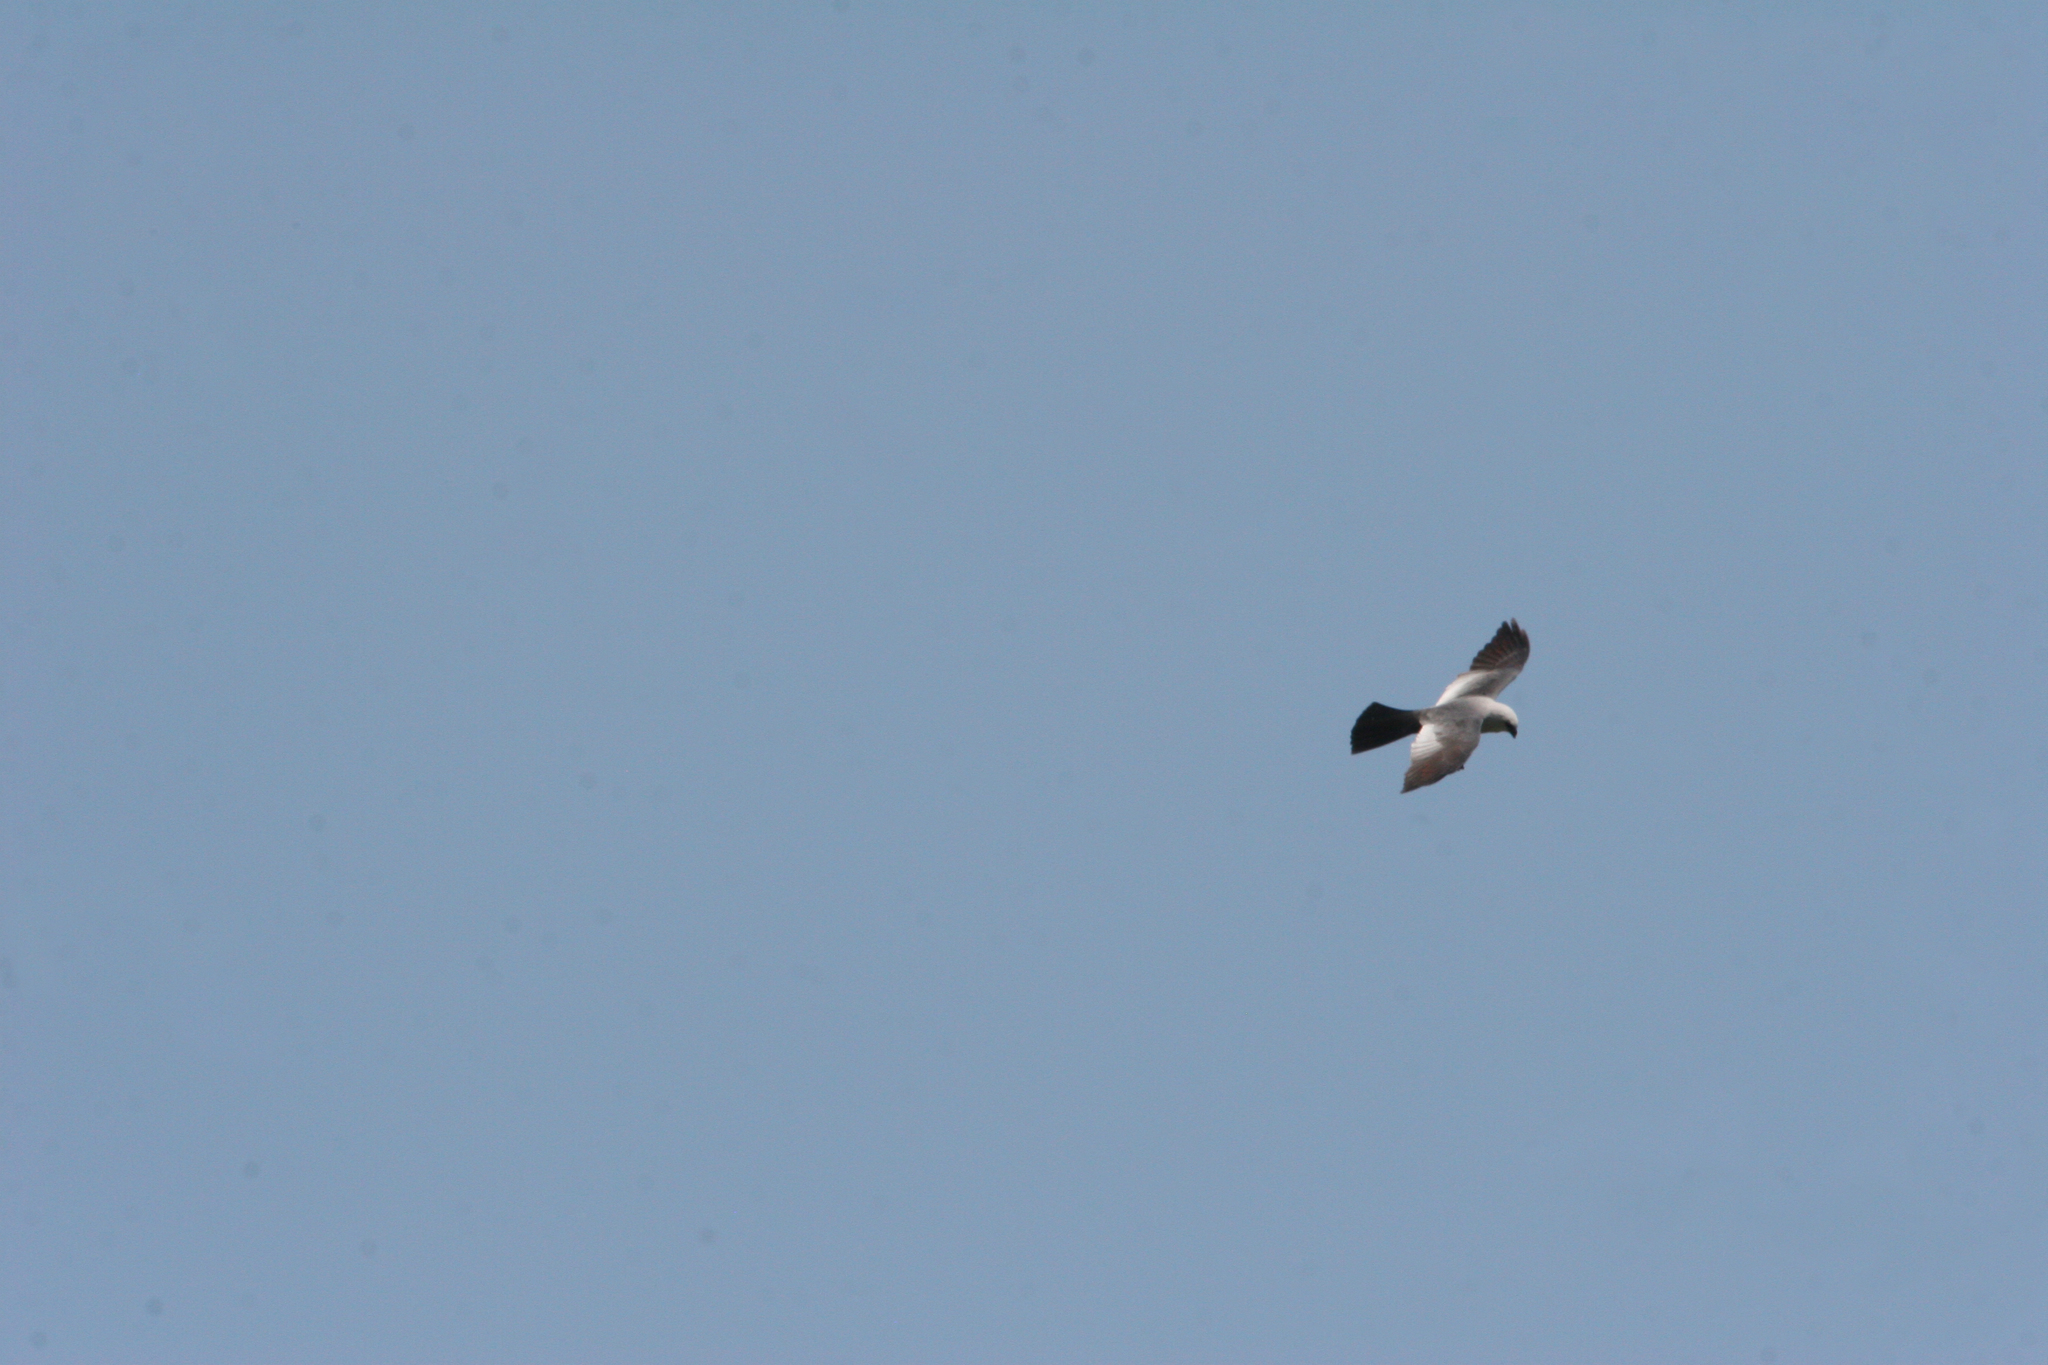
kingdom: Animalia
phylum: Chordata
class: Aves
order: Accipitriformes
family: Accipitridae
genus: Ictinia
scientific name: Ictinia mississippiensis
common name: Mississippi kite
